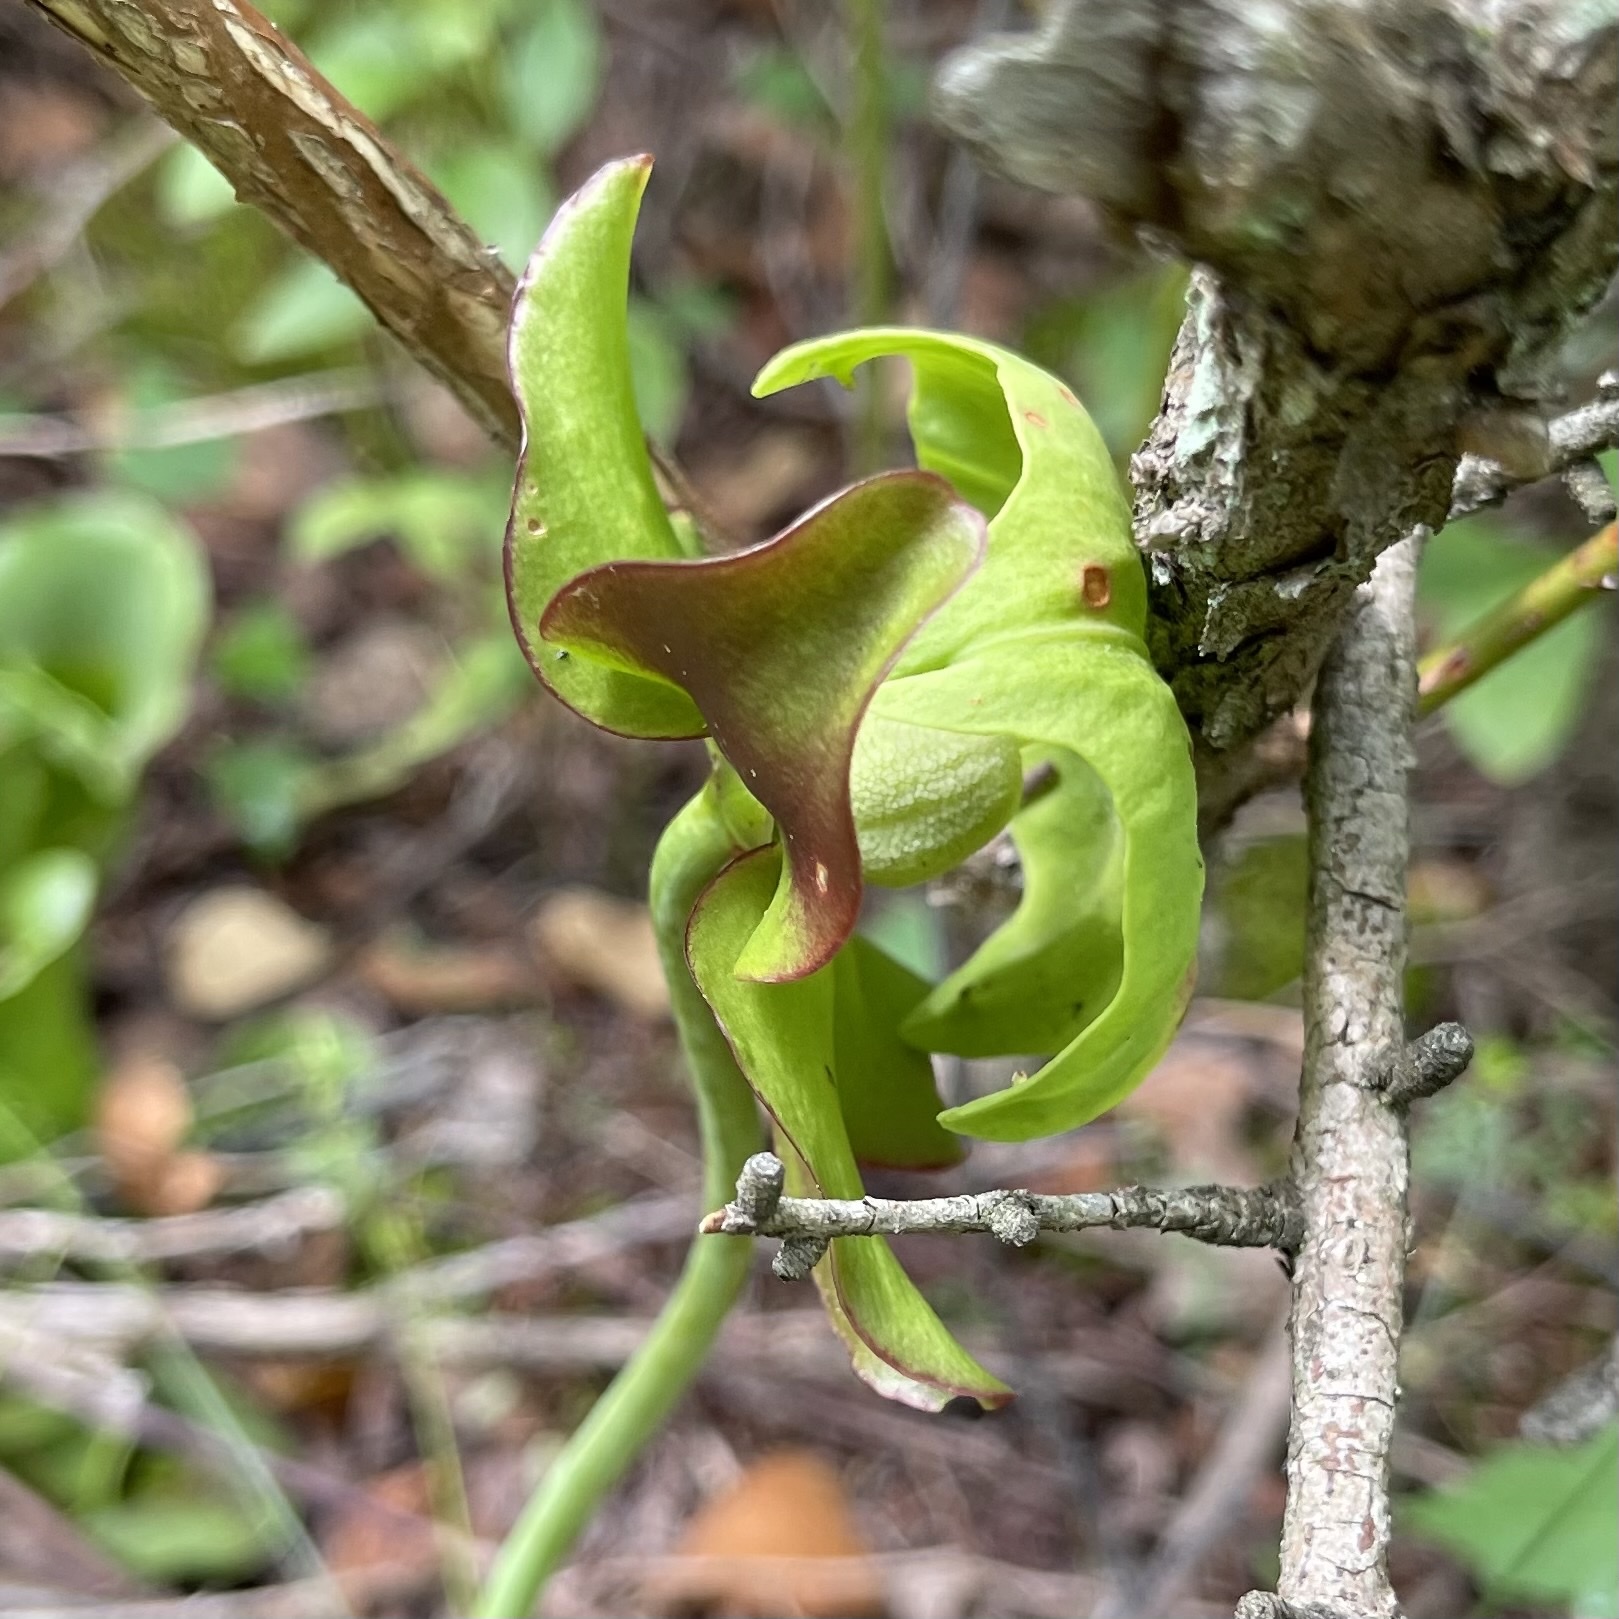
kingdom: Plantae
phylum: Tracheophyta
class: Magnoliopsida
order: Ericales
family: Sarraceniaceae
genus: Sarracenia
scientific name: Sarracenia purpurea
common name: Pitcherplant
